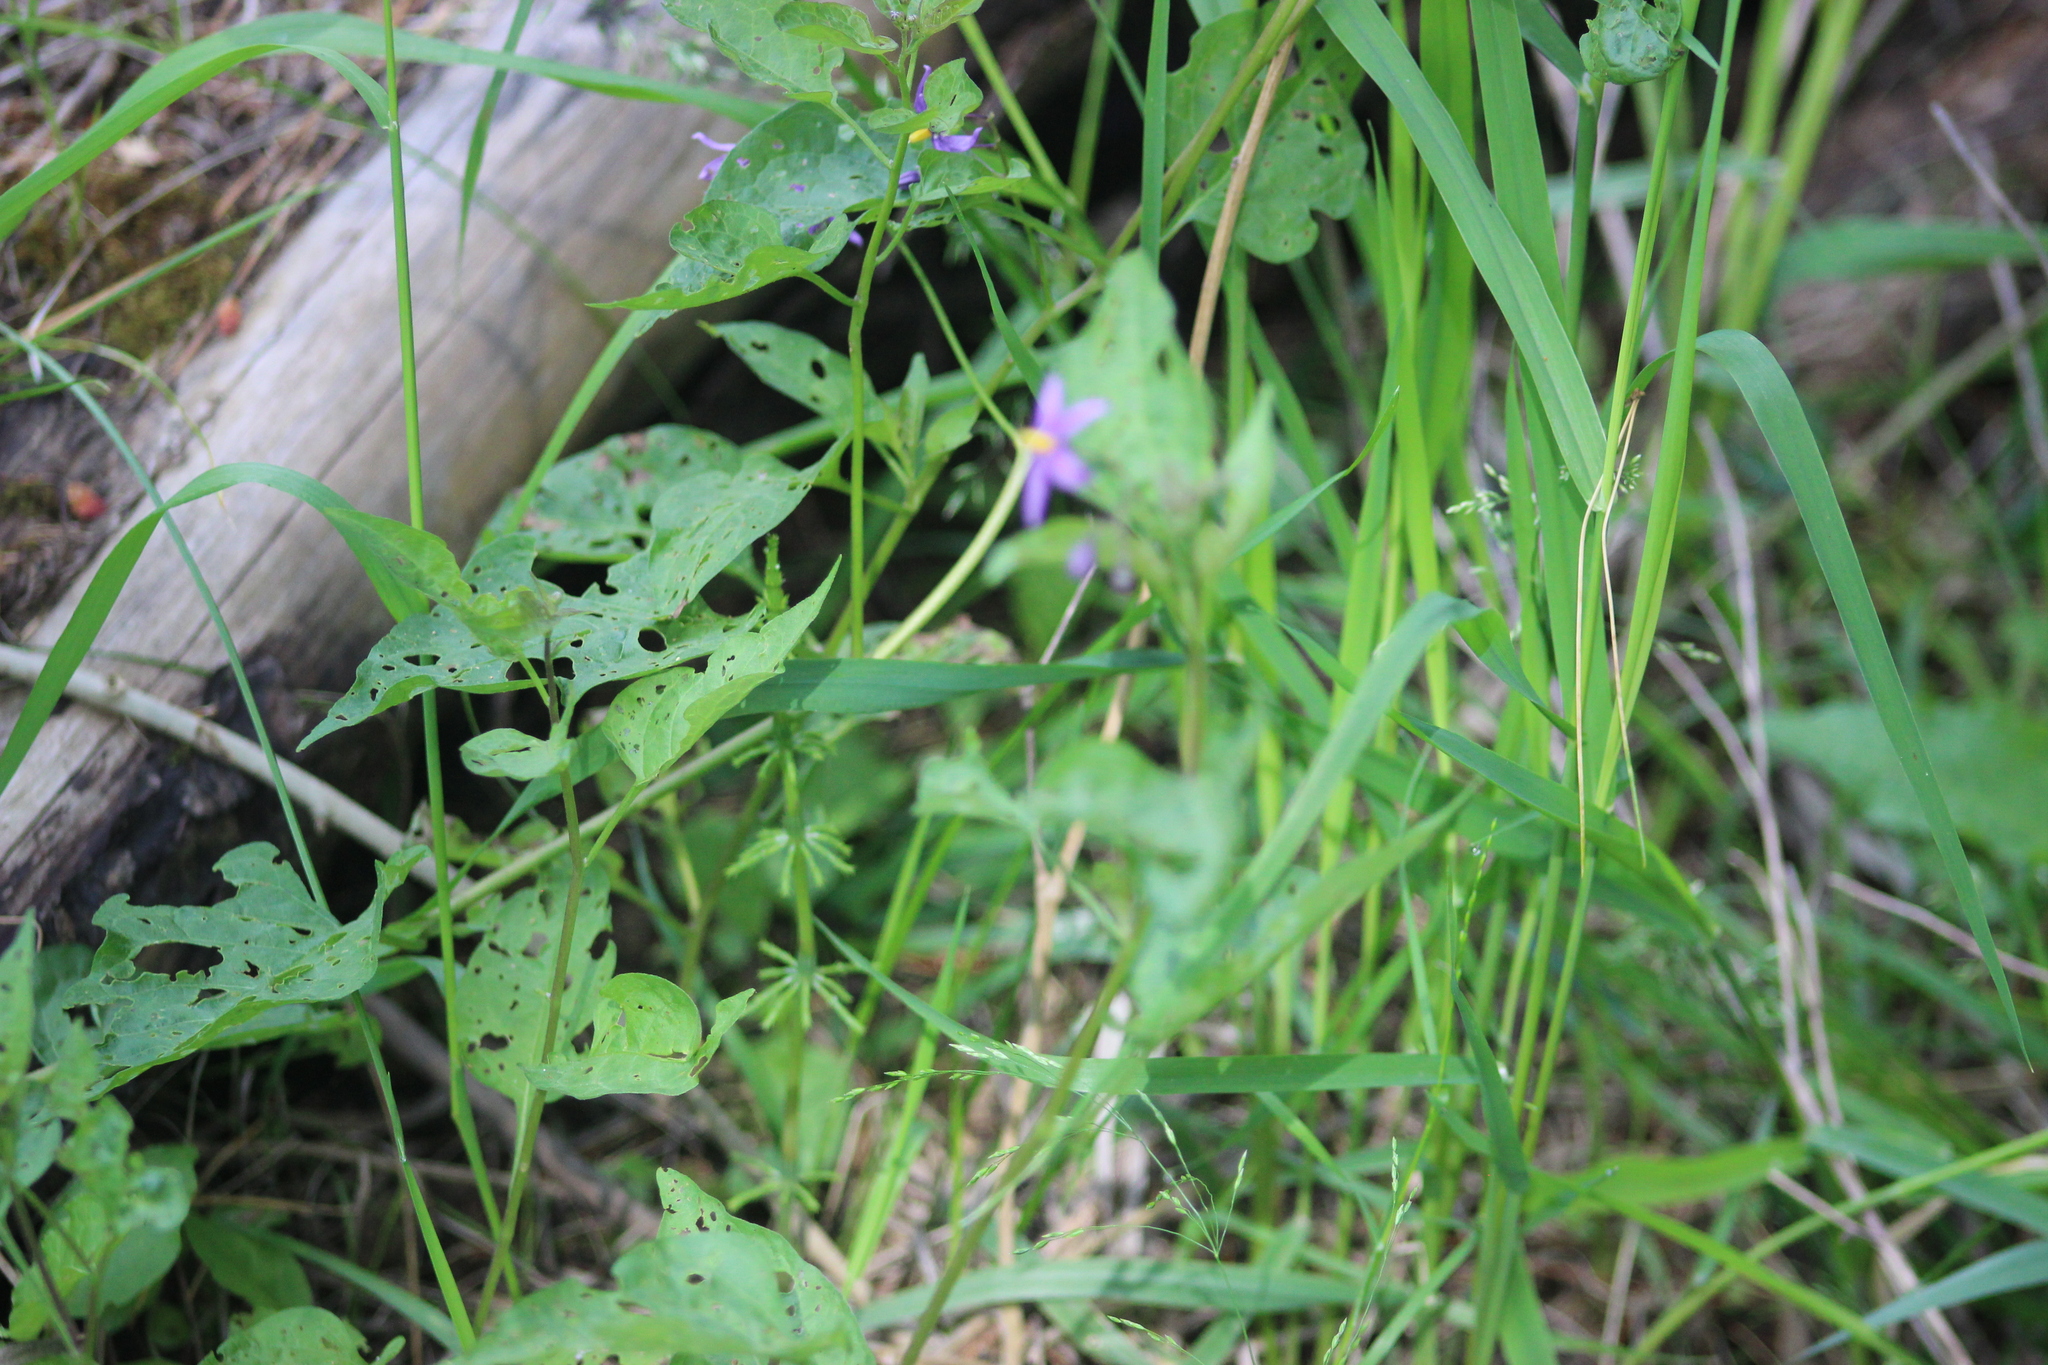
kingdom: Plantae
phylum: Tracheophyta
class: Magnoliopsida
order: Solanales
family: Solanaceae
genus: Solanum
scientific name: Solanum dulcamara
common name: Climbing nightshade
